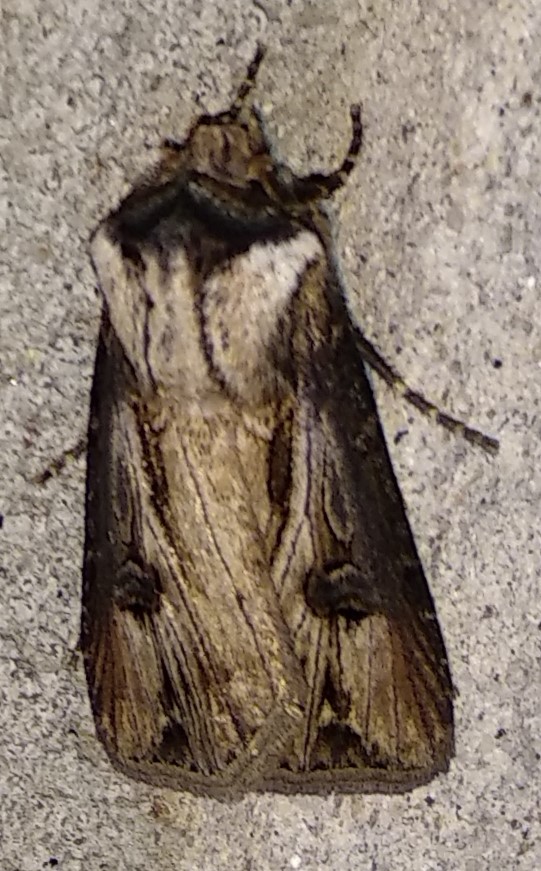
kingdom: Animalia
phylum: Arthropoda
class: Insecta
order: Lepidoptera
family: Noctuidae
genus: Agrotis
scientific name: Agrotis venerabilis
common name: Venerable dart
